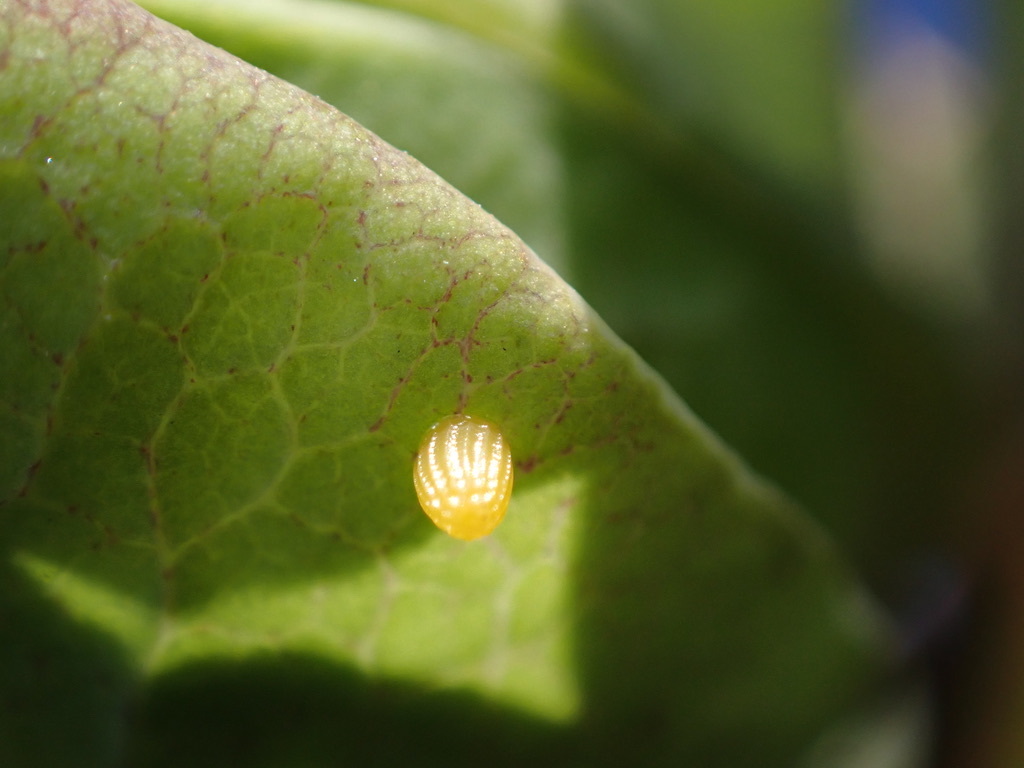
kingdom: Animalia
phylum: Arthropoda
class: Insecta
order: Lepidoptera
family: Nymphalidae
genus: Dione
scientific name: Dione vanillae
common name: Gulf fritillary
